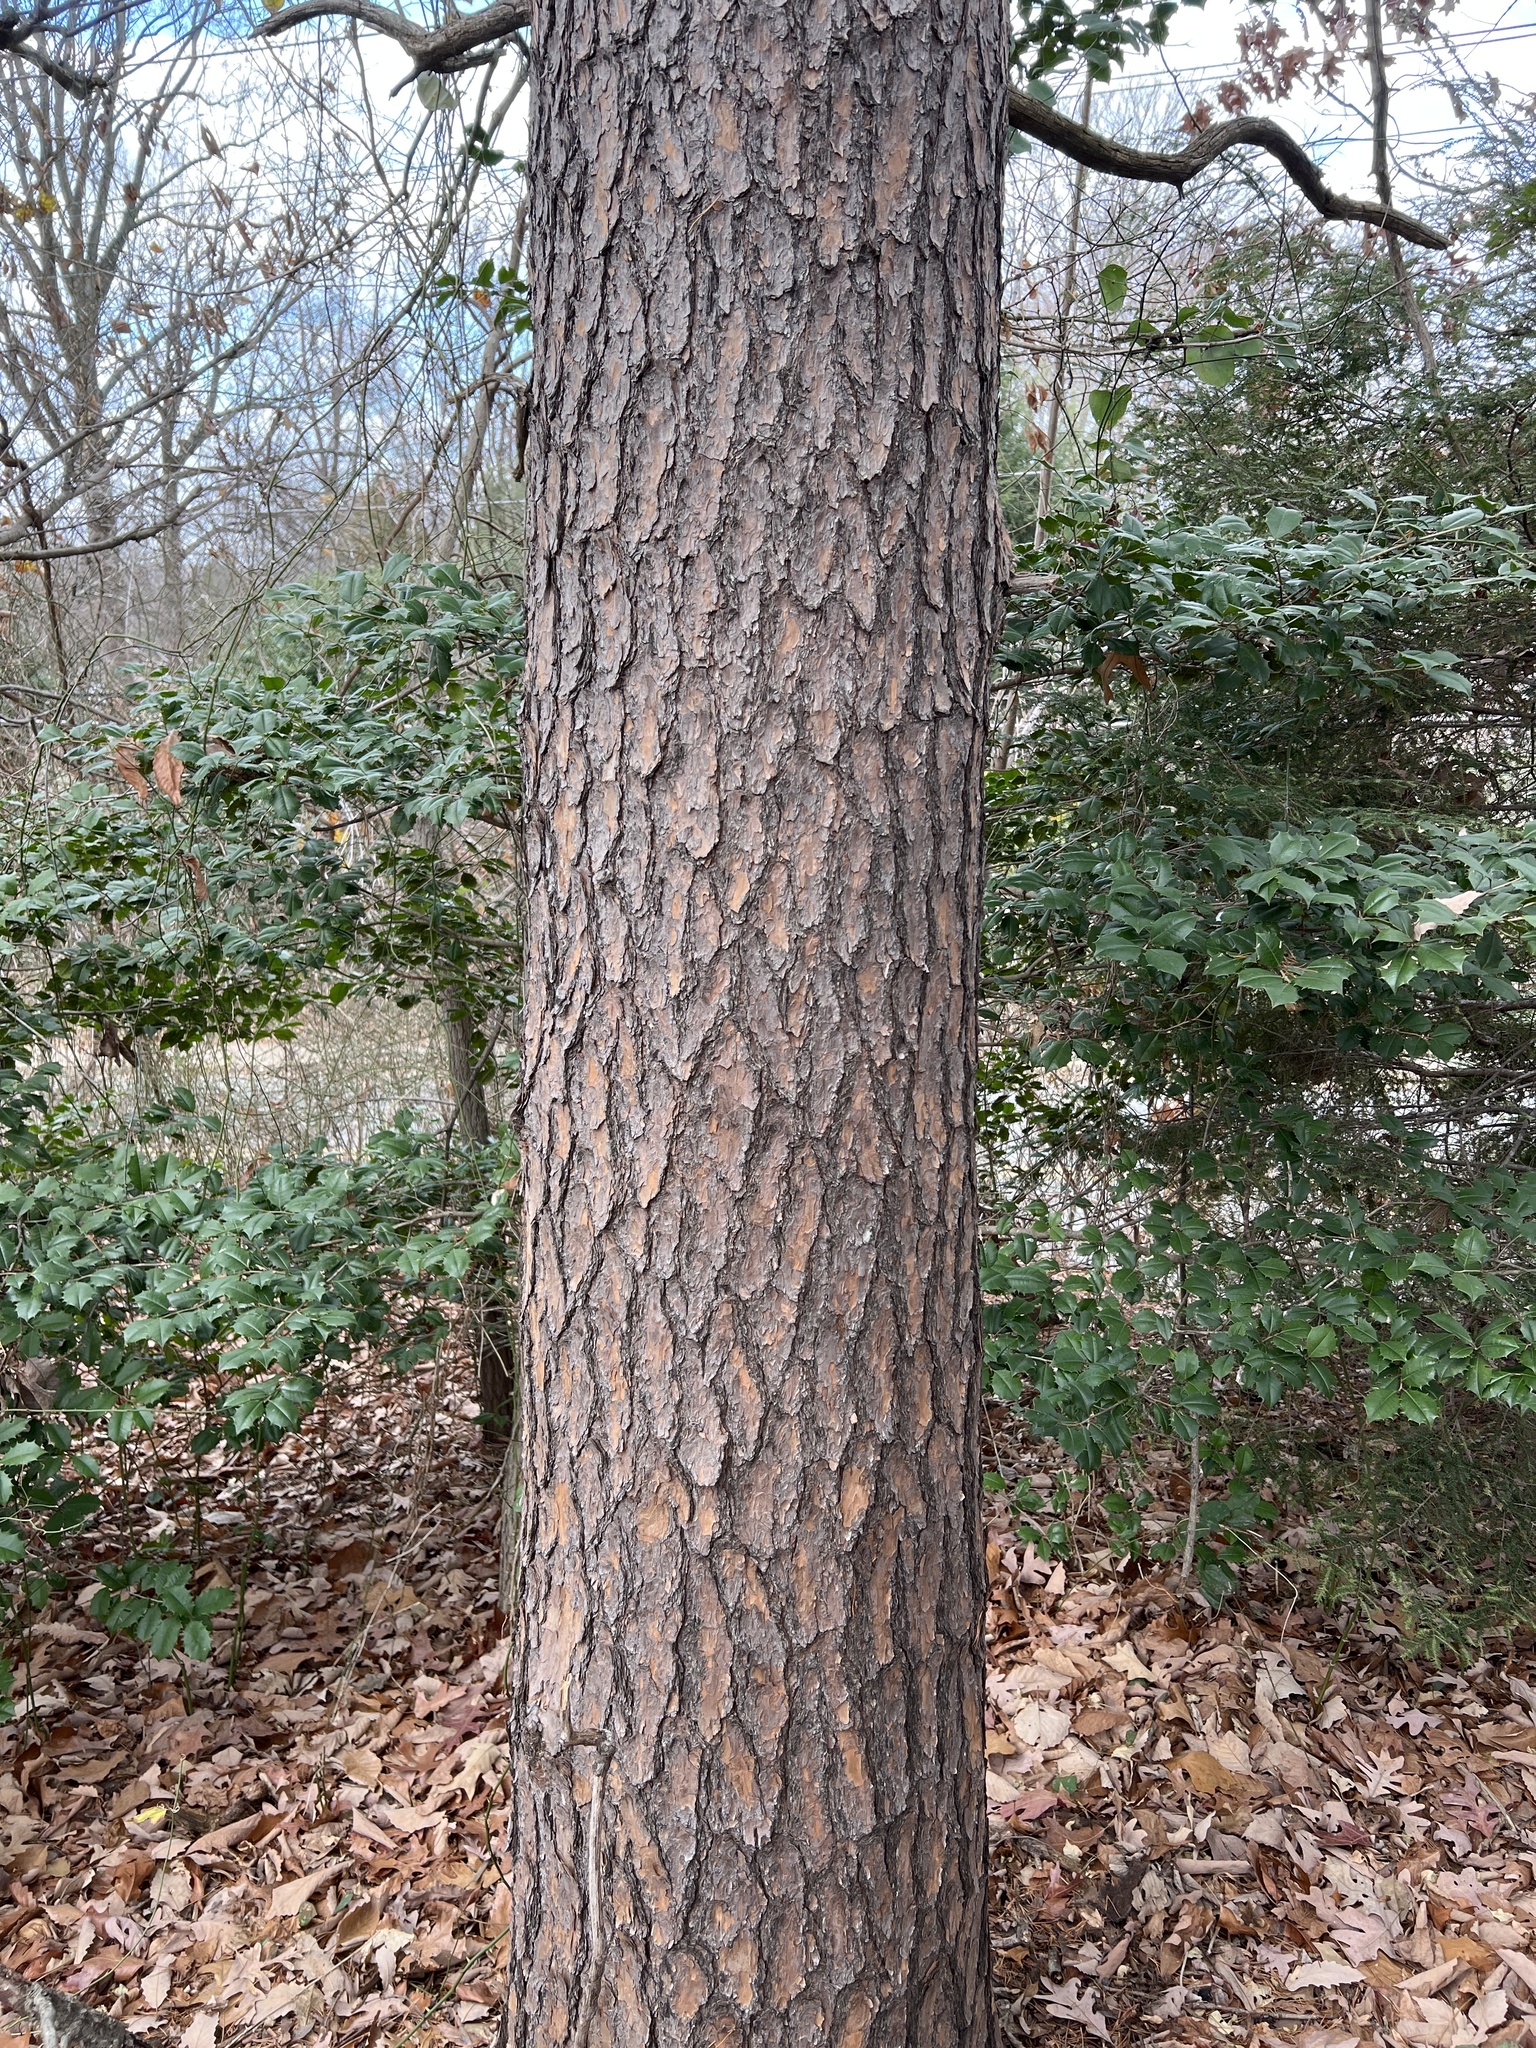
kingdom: Plantae
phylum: Tracheophyta
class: Pinopsida
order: Pinales
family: Pinaceae
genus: Pinus
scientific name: Pinus virginiana
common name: Scrub pine
